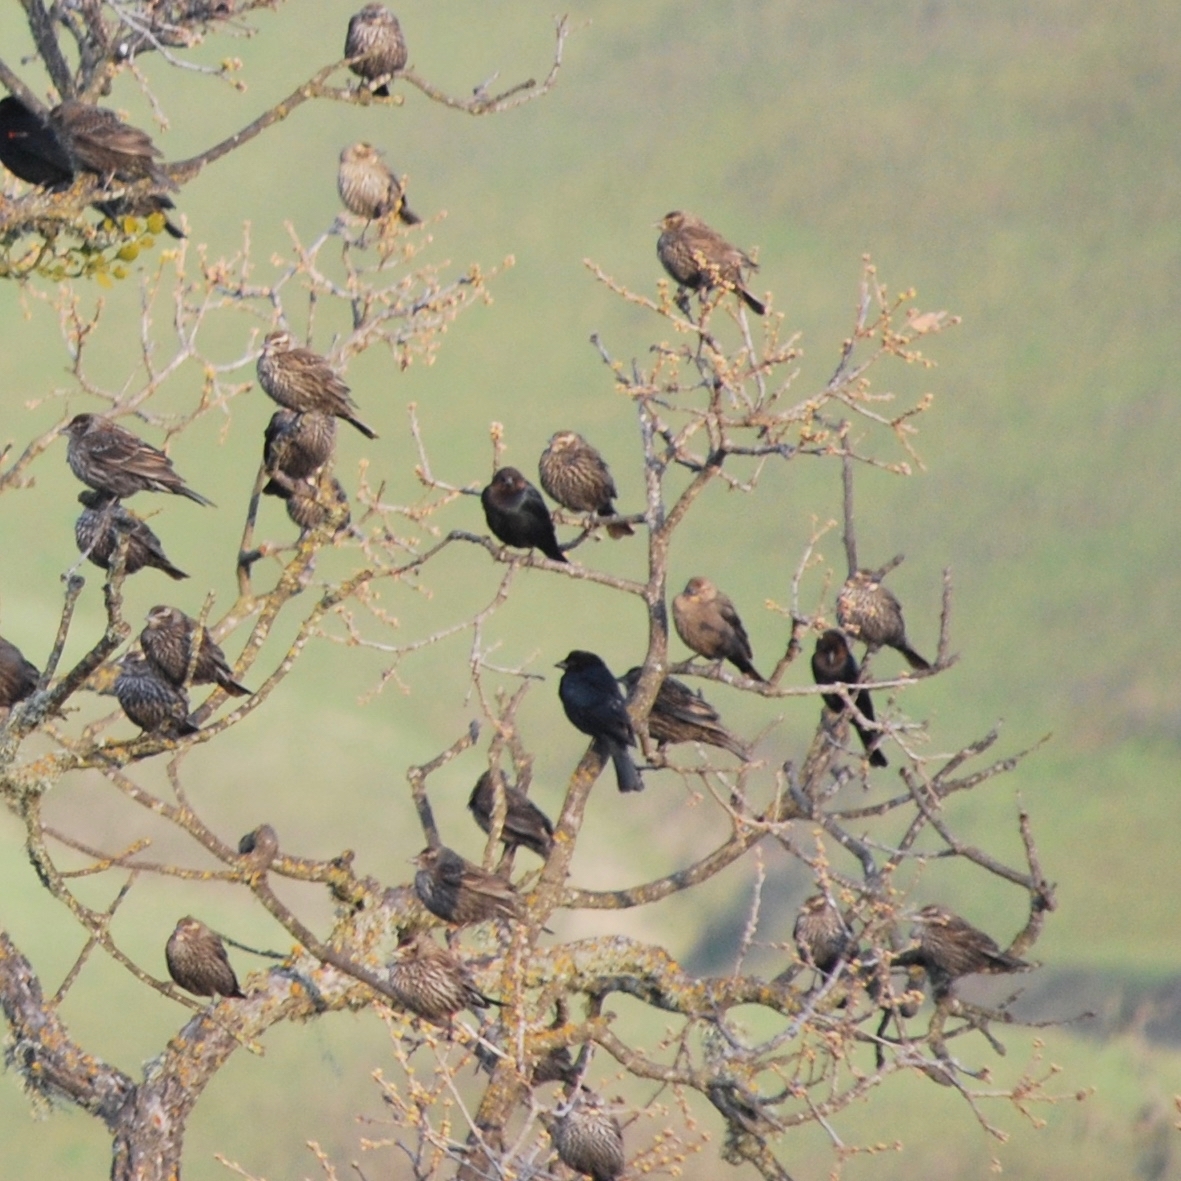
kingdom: Animalia
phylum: Chordata
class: Aves
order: Passeriformes
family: Icteridae
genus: Molothrus
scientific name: Molothrus ater
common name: Brown-headed cowbird
